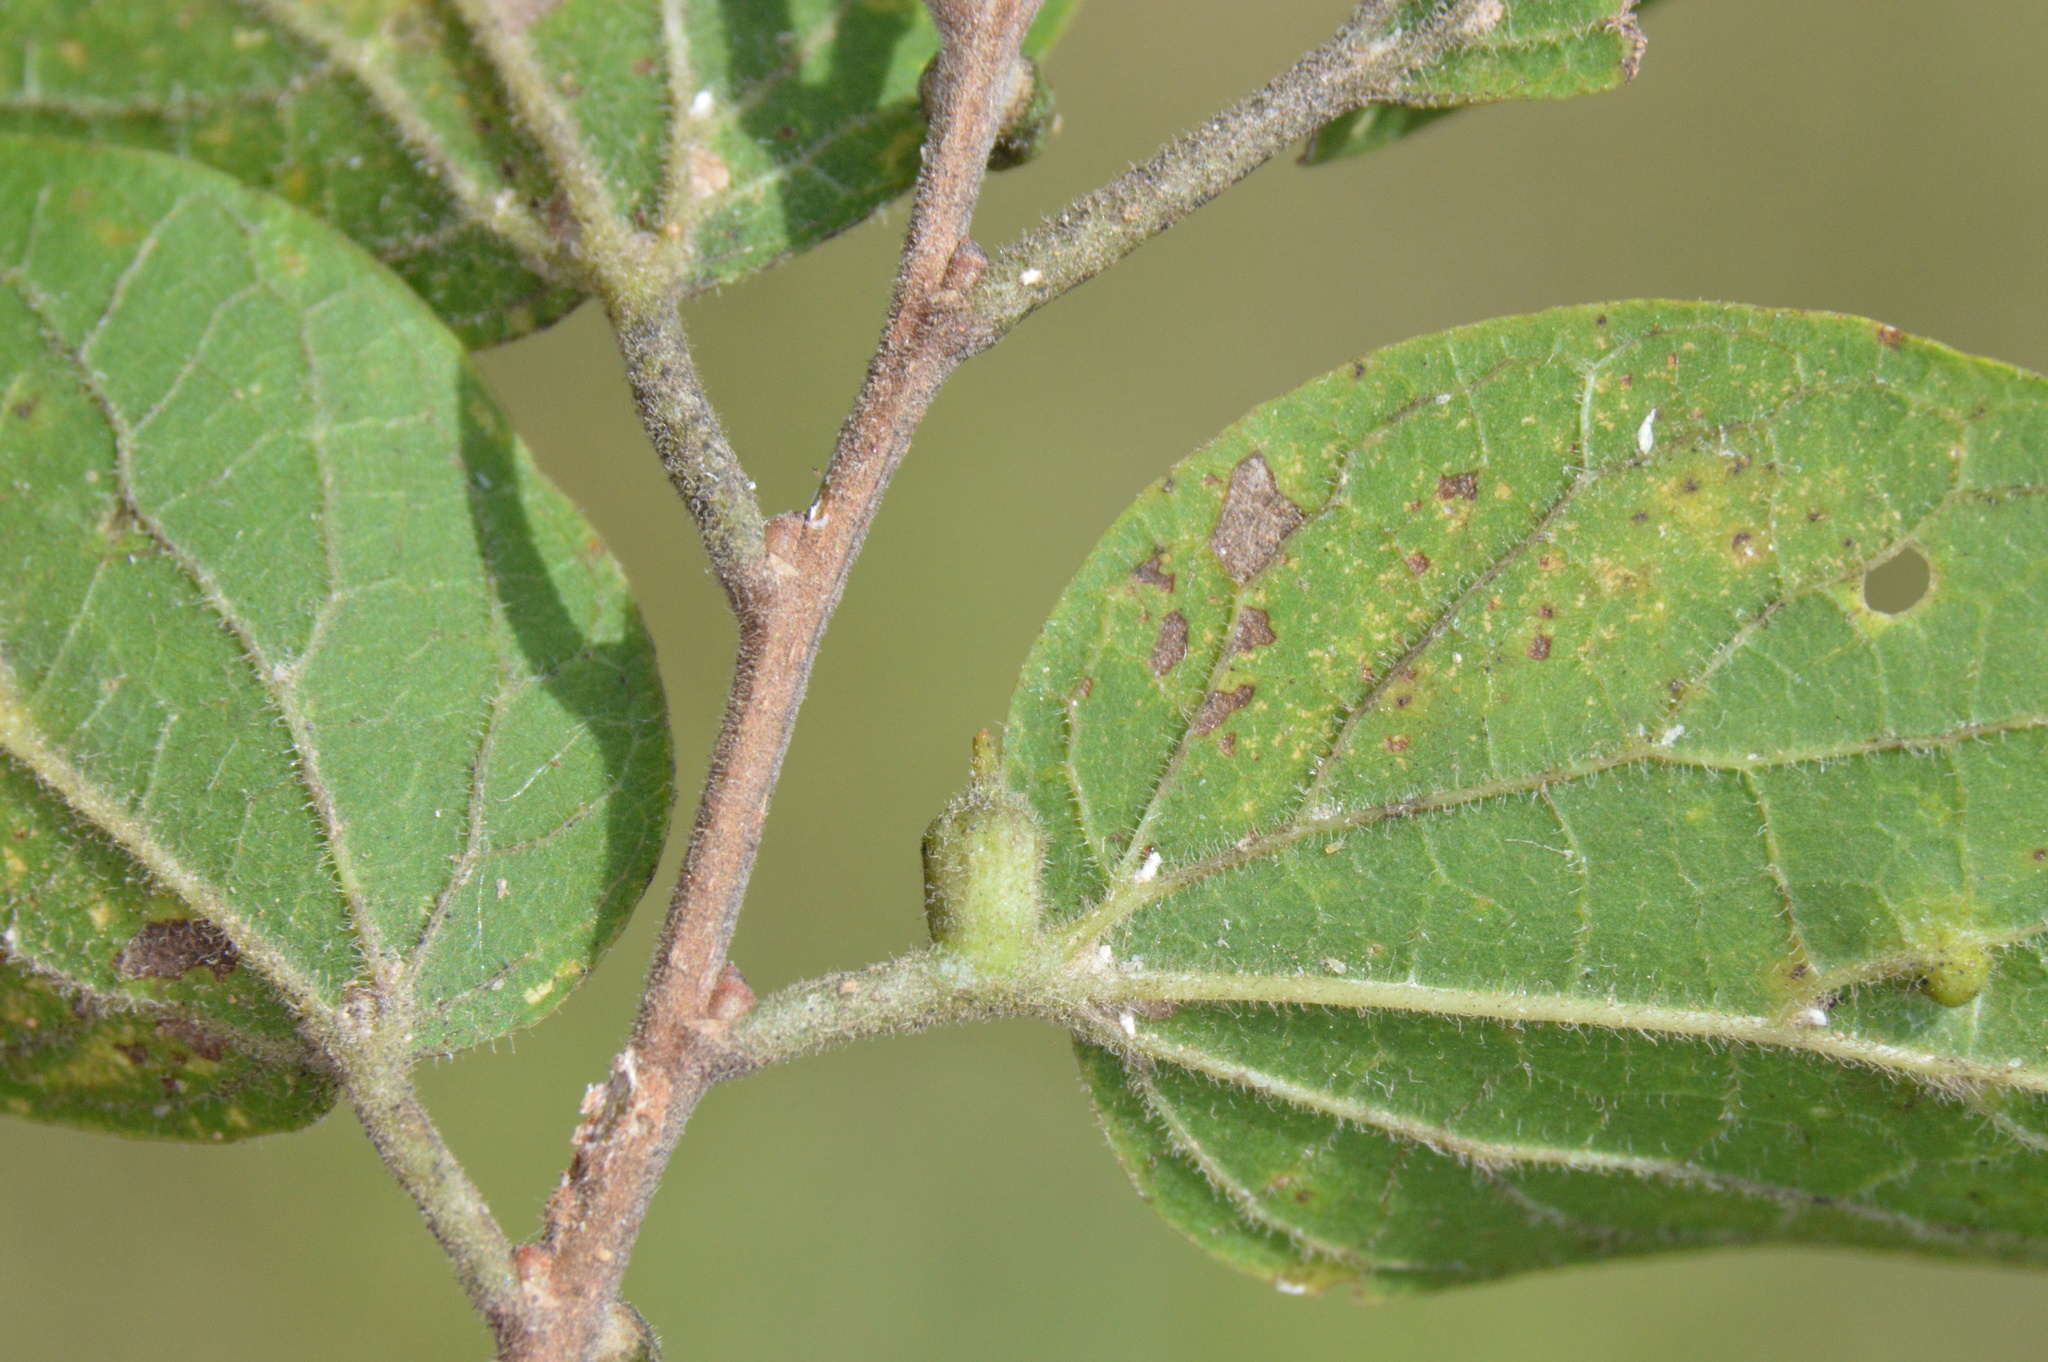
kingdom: Animalia
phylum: Arthropoda
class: Insecta
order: Diptera
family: Cecidomyiidae
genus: Celticecis
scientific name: Celticecis ramicola
